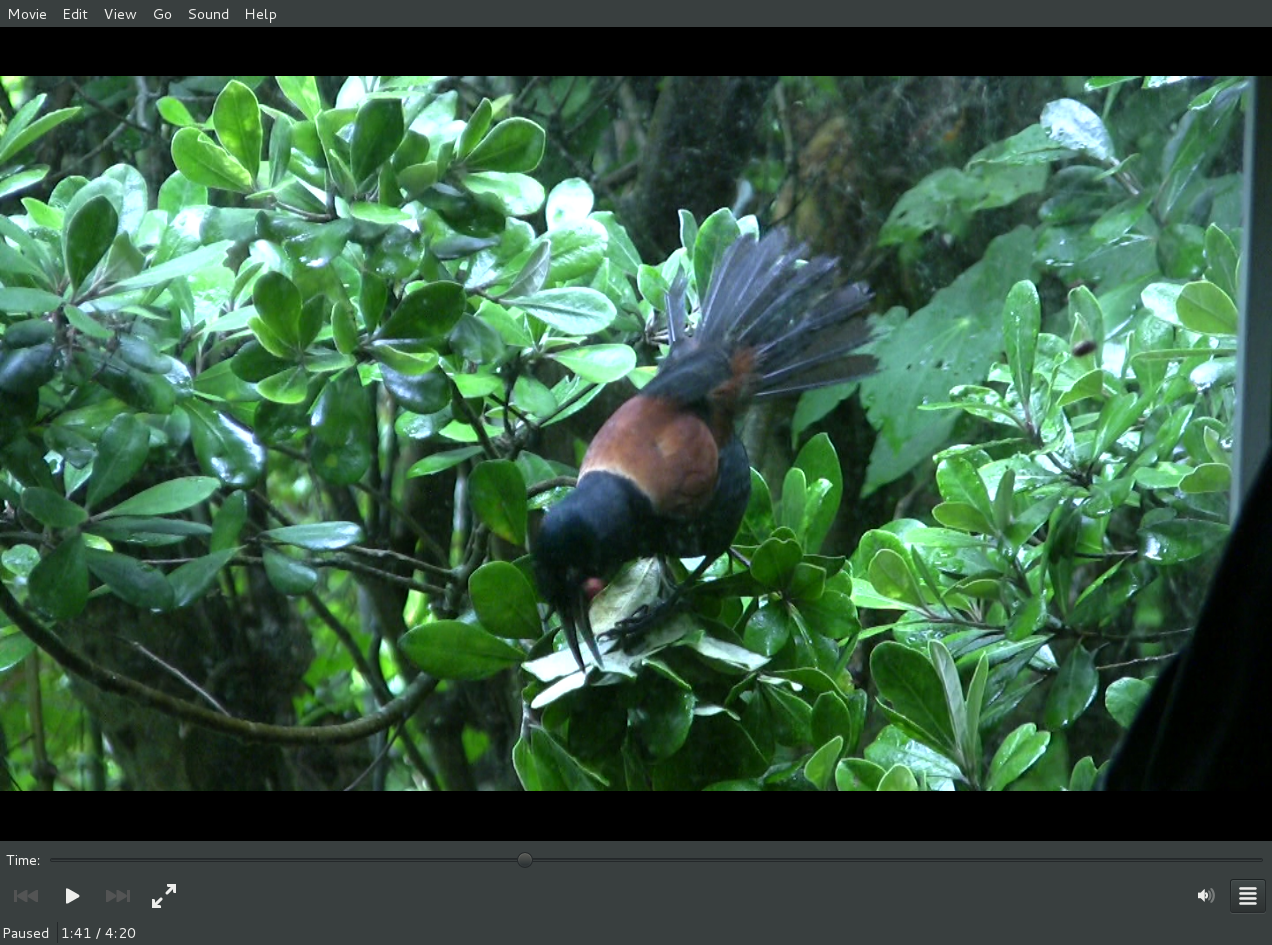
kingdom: Animalia
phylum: Chordata
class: Aves
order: Passeriformes
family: Callaeatidae
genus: Philesturnus
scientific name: Philesturnus carunculatus
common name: South island saddleback
